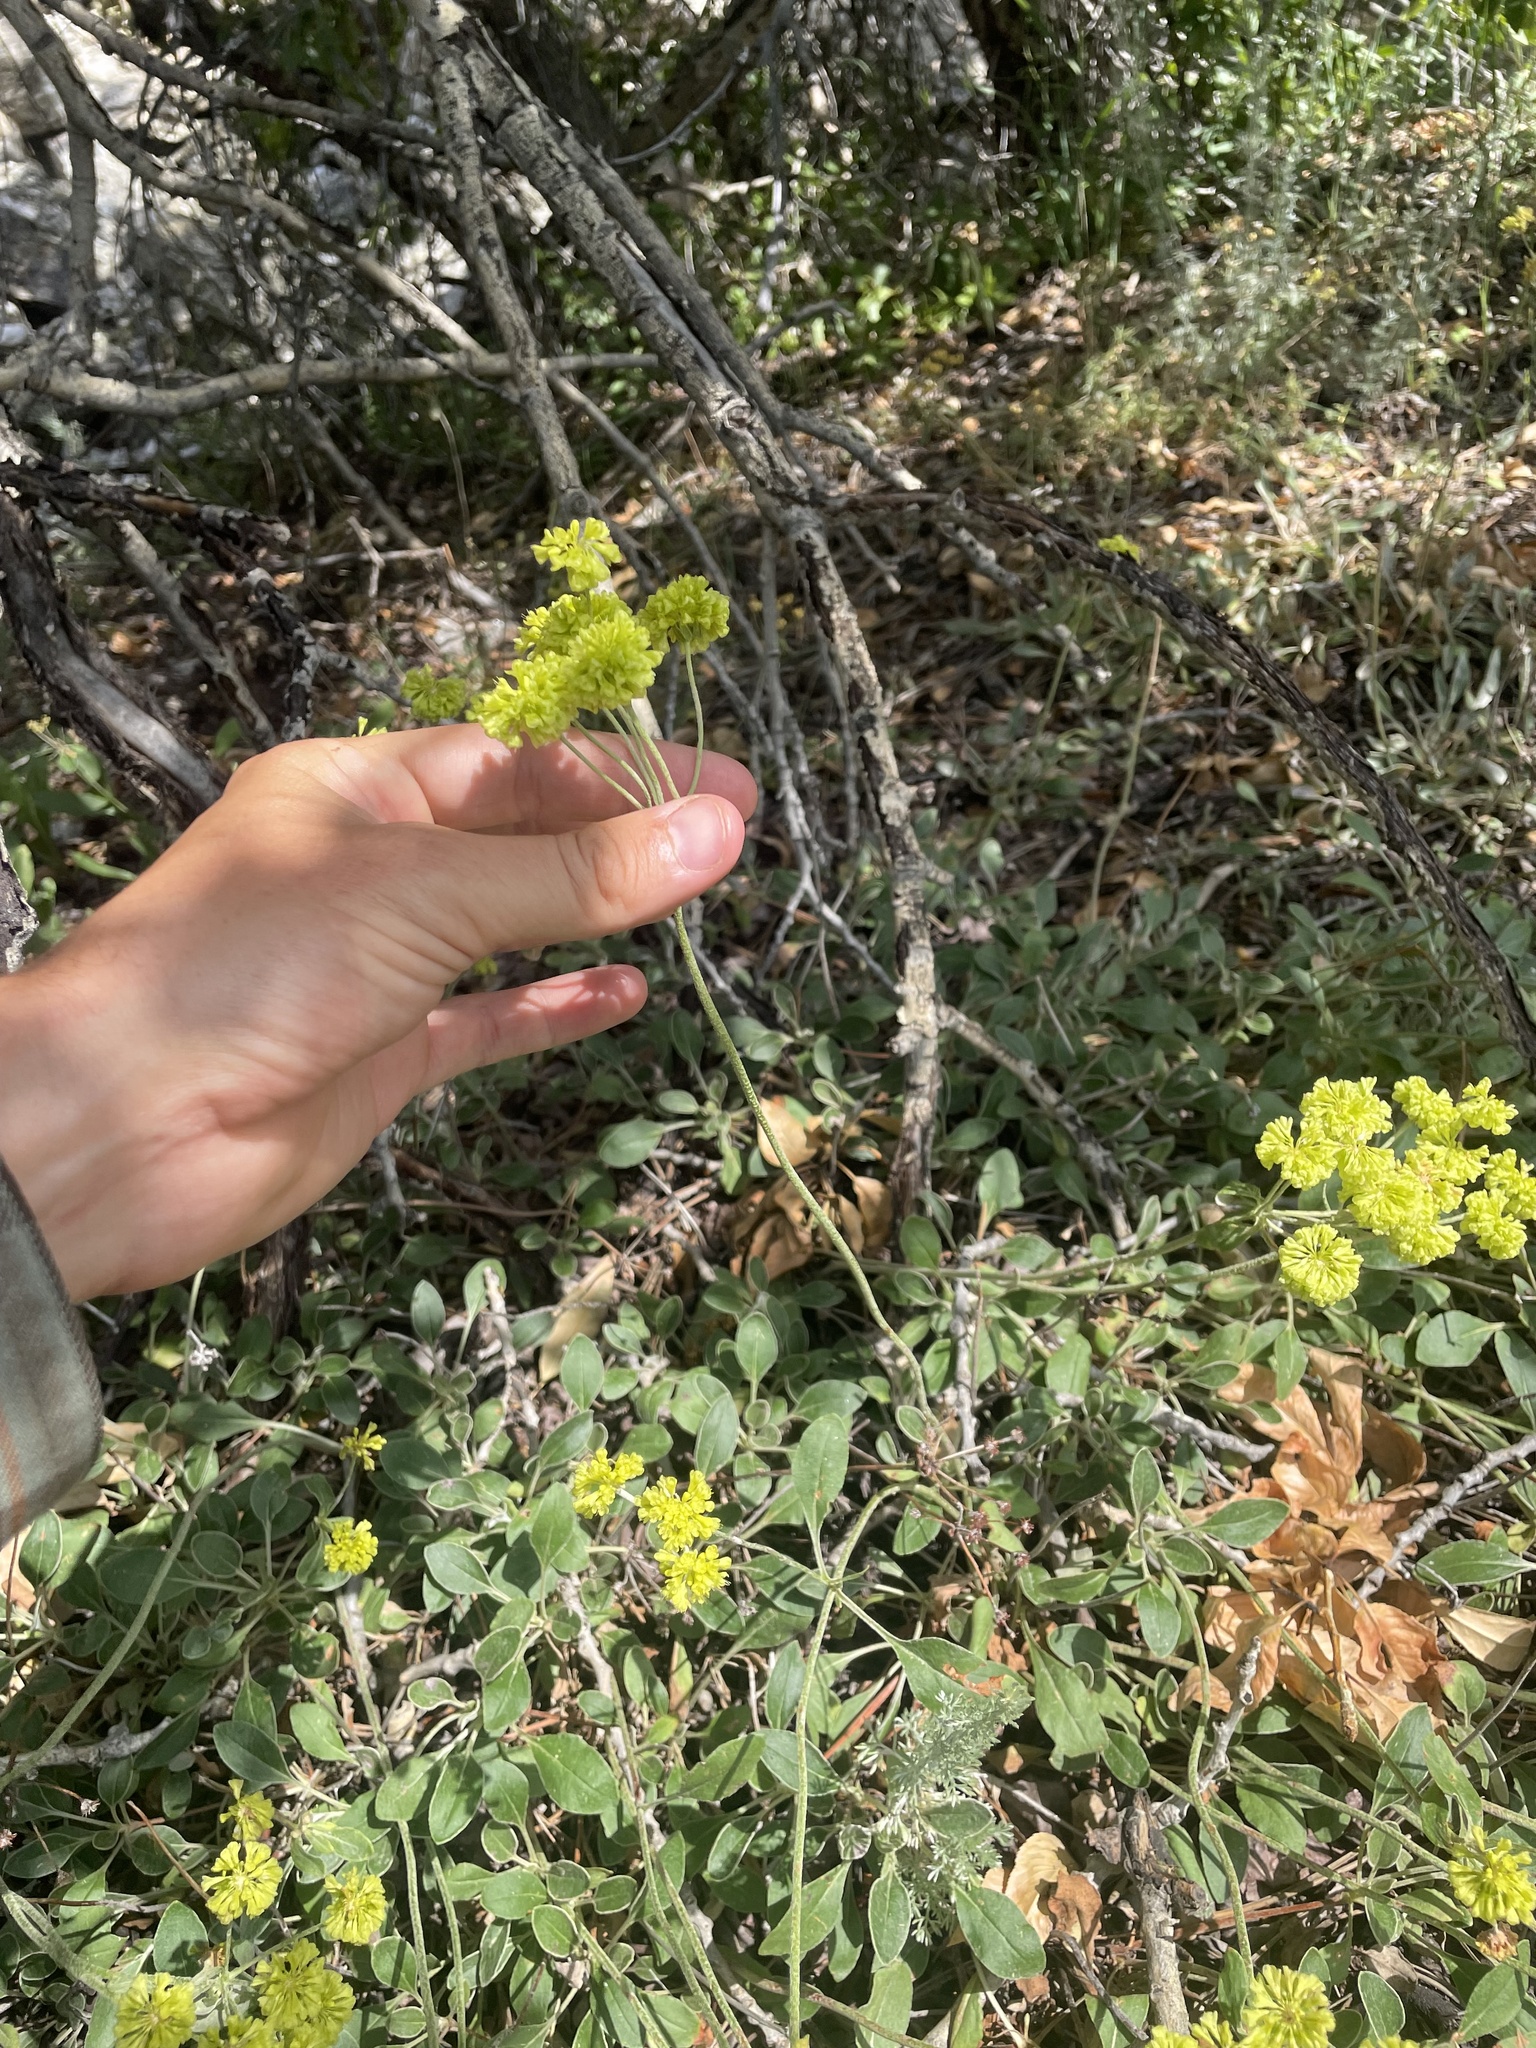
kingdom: Plantae
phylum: Tracheophyta
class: Magnoliopsida
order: Caryophyllales
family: Polygonaceae
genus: Eriogonum
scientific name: Eriogonum umbellatum
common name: Sulfur-buckwheat
